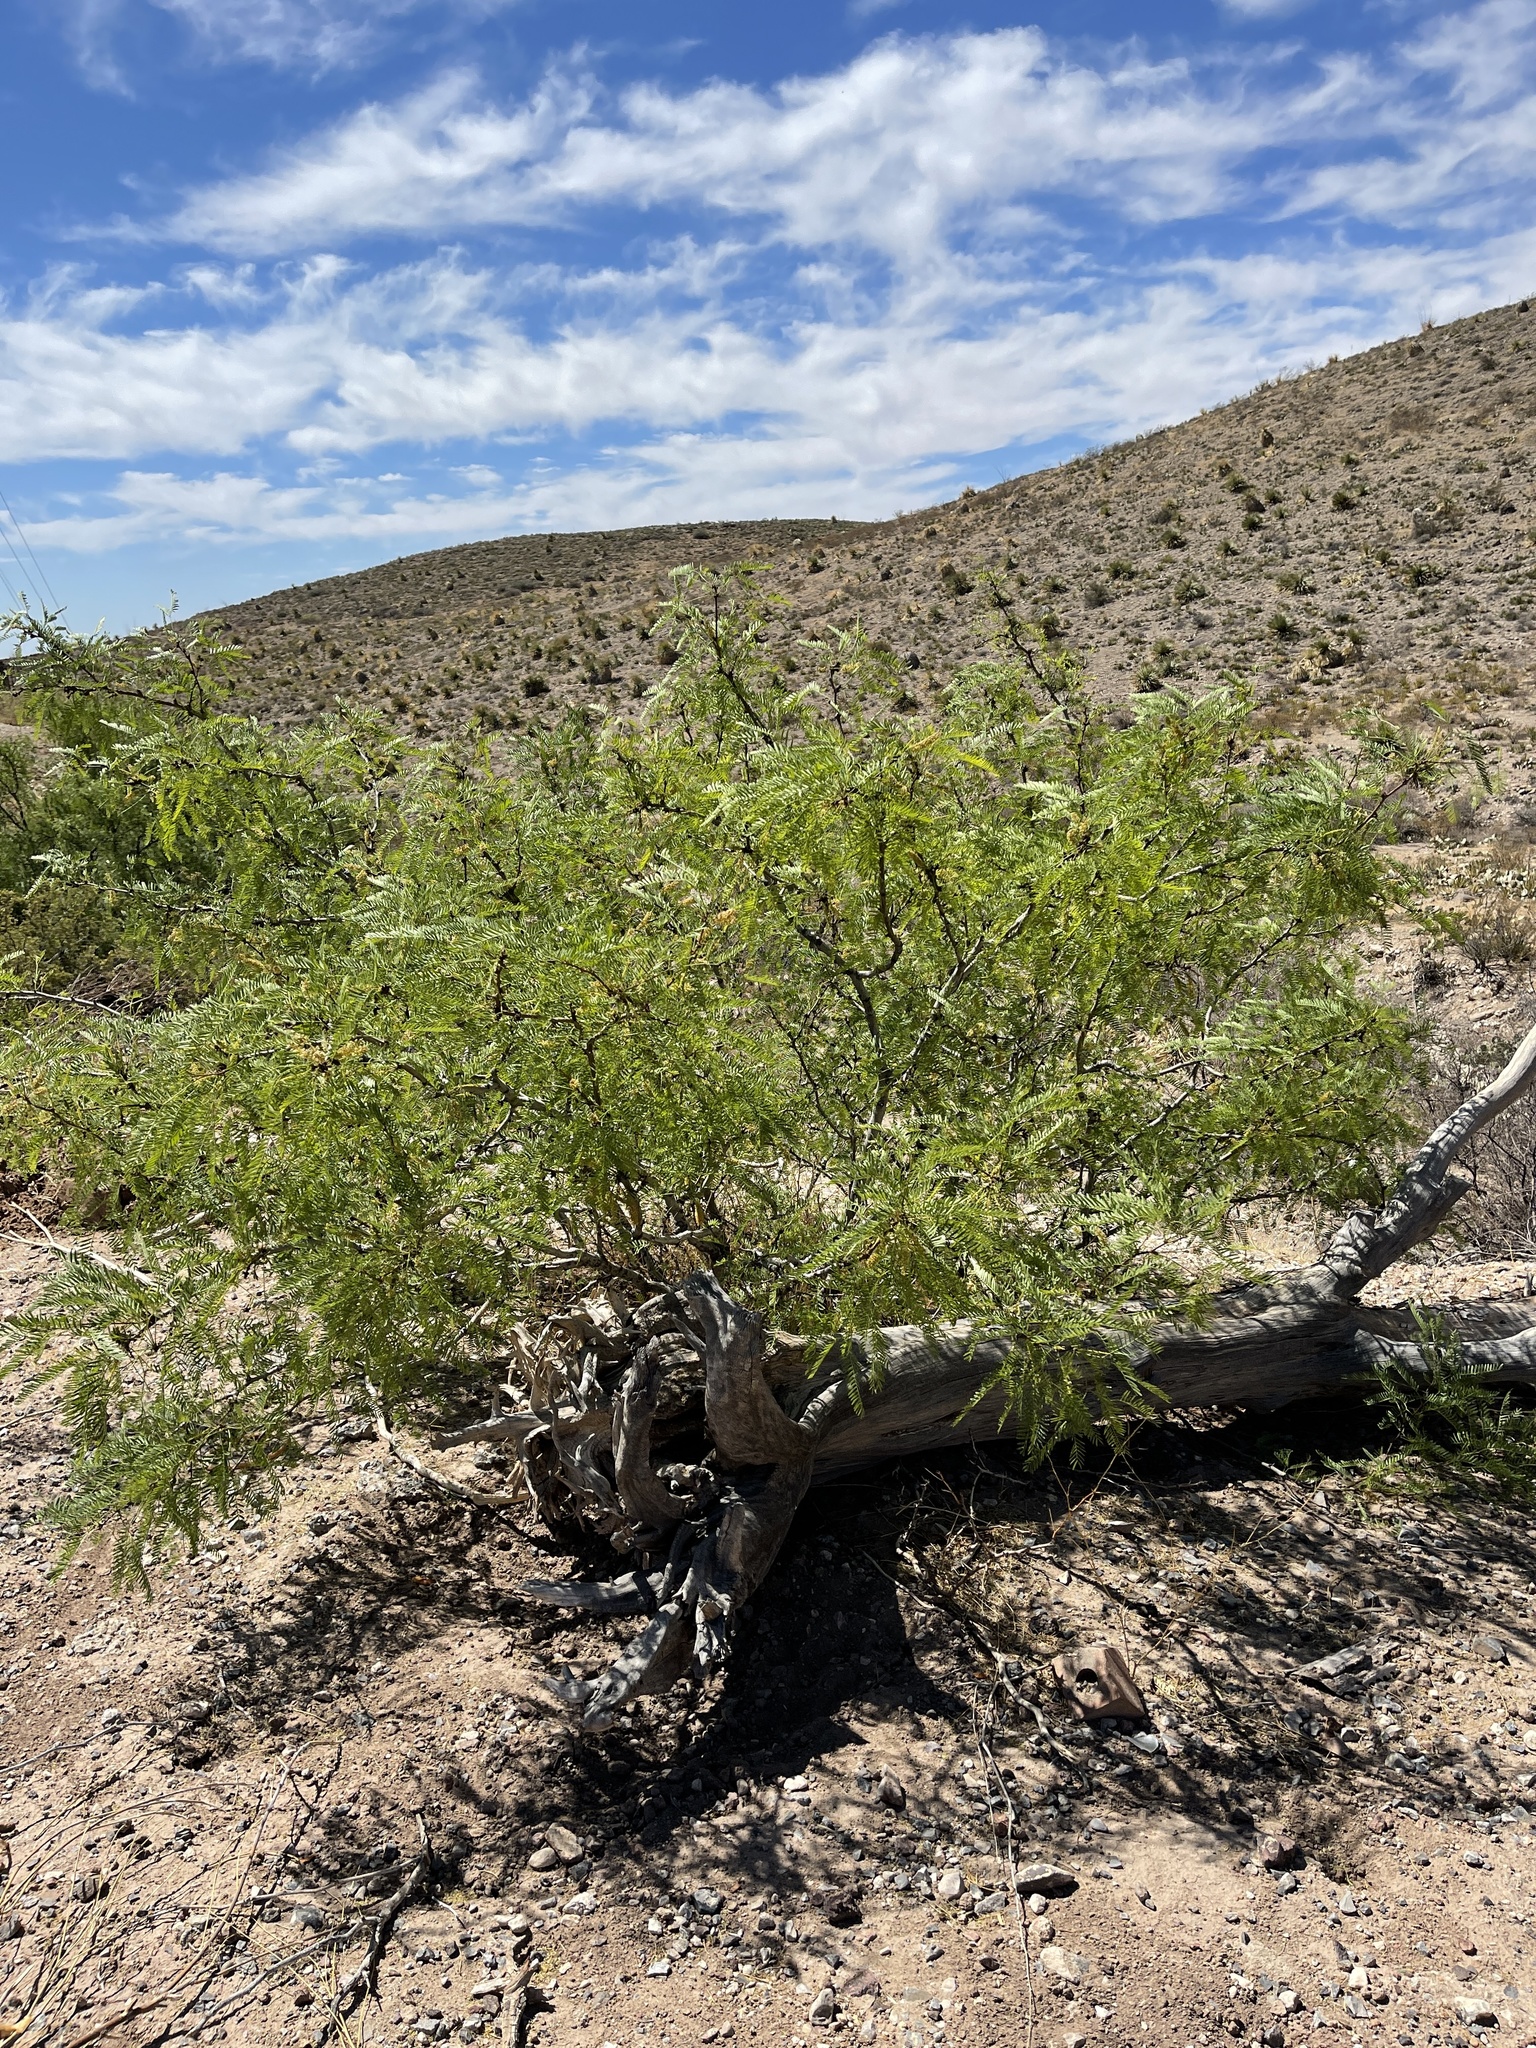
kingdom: Plantae
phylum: Tracheophyta
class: Magnoliopsida
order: Fabales
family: Fabaceae
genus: Prosopis
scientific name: Prosopis glandulosa
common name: Honey mesquite
